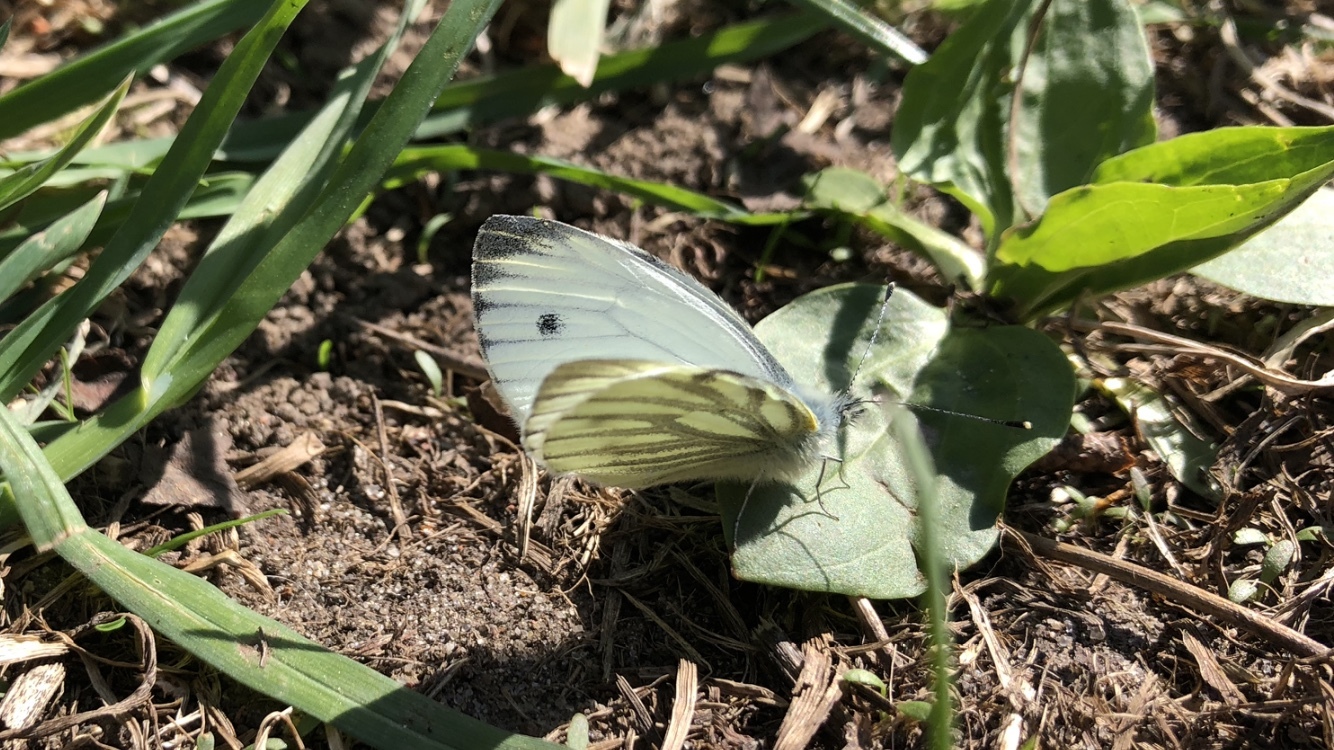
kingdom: Animalia
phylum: Arthropoda
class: Insecta
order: Lepidoptera
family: Pieridae
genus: Pieris
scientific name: Pieris napi
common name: Green-veined white
